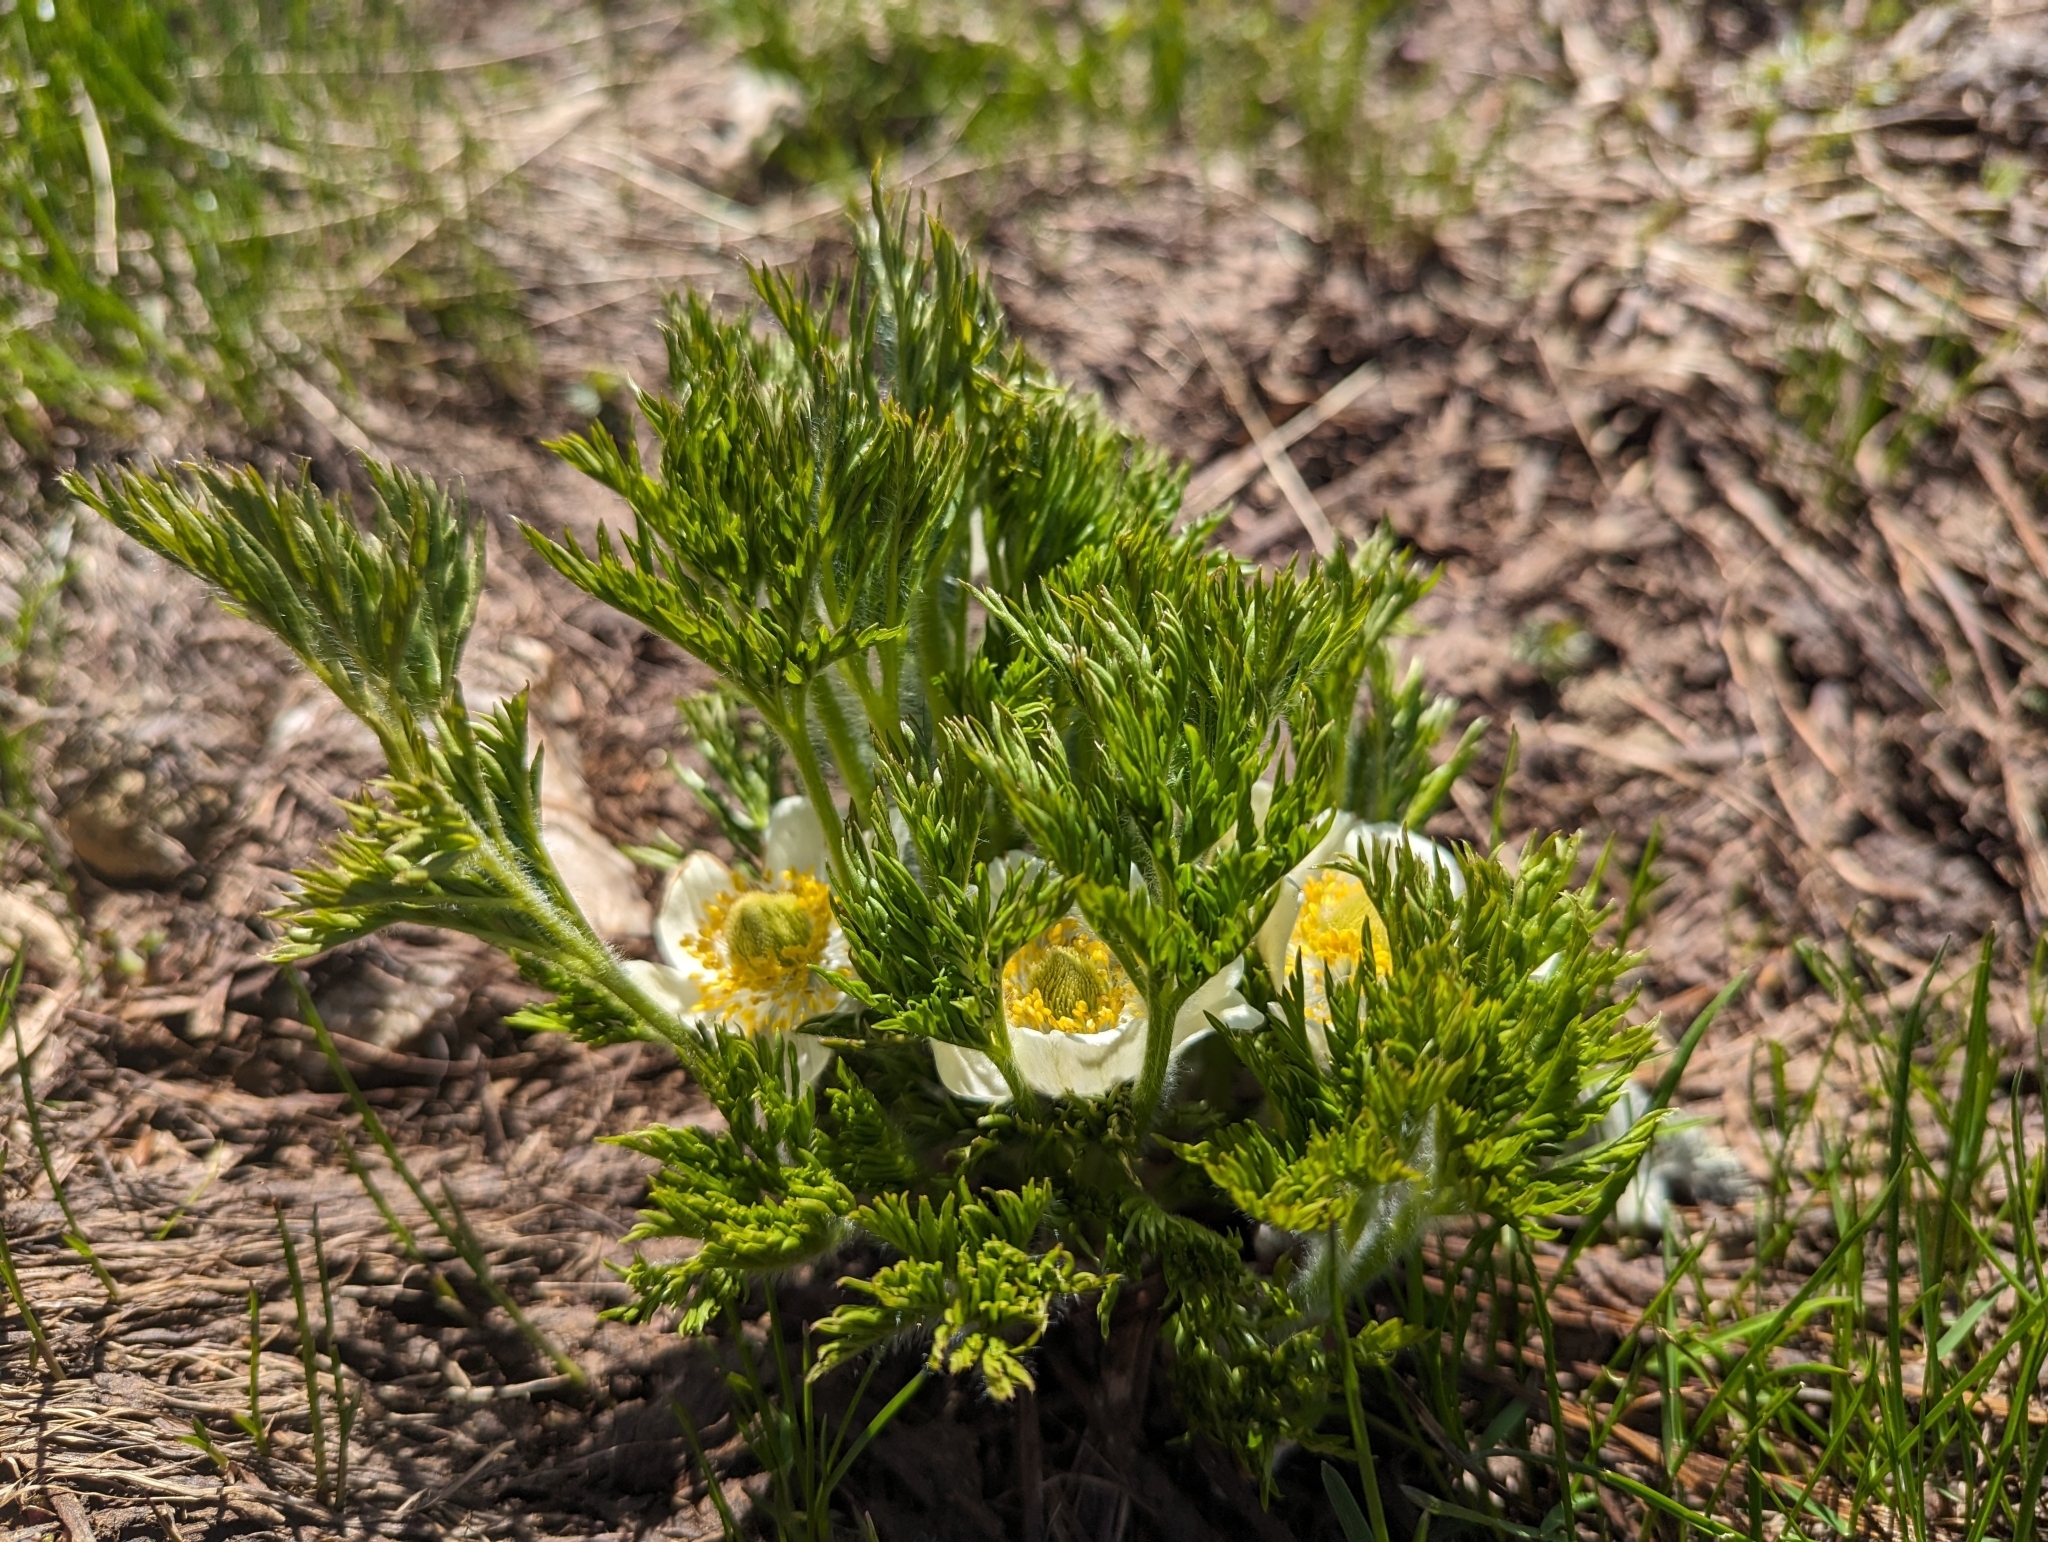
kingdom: Plantae
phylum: Tracheophyta
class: Magnoliopsida
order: Ranunculales
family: Ranunculaceae
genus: Pulsatilla
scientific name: Pulsatilla occidentalis
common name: Mountain pasqueflower
